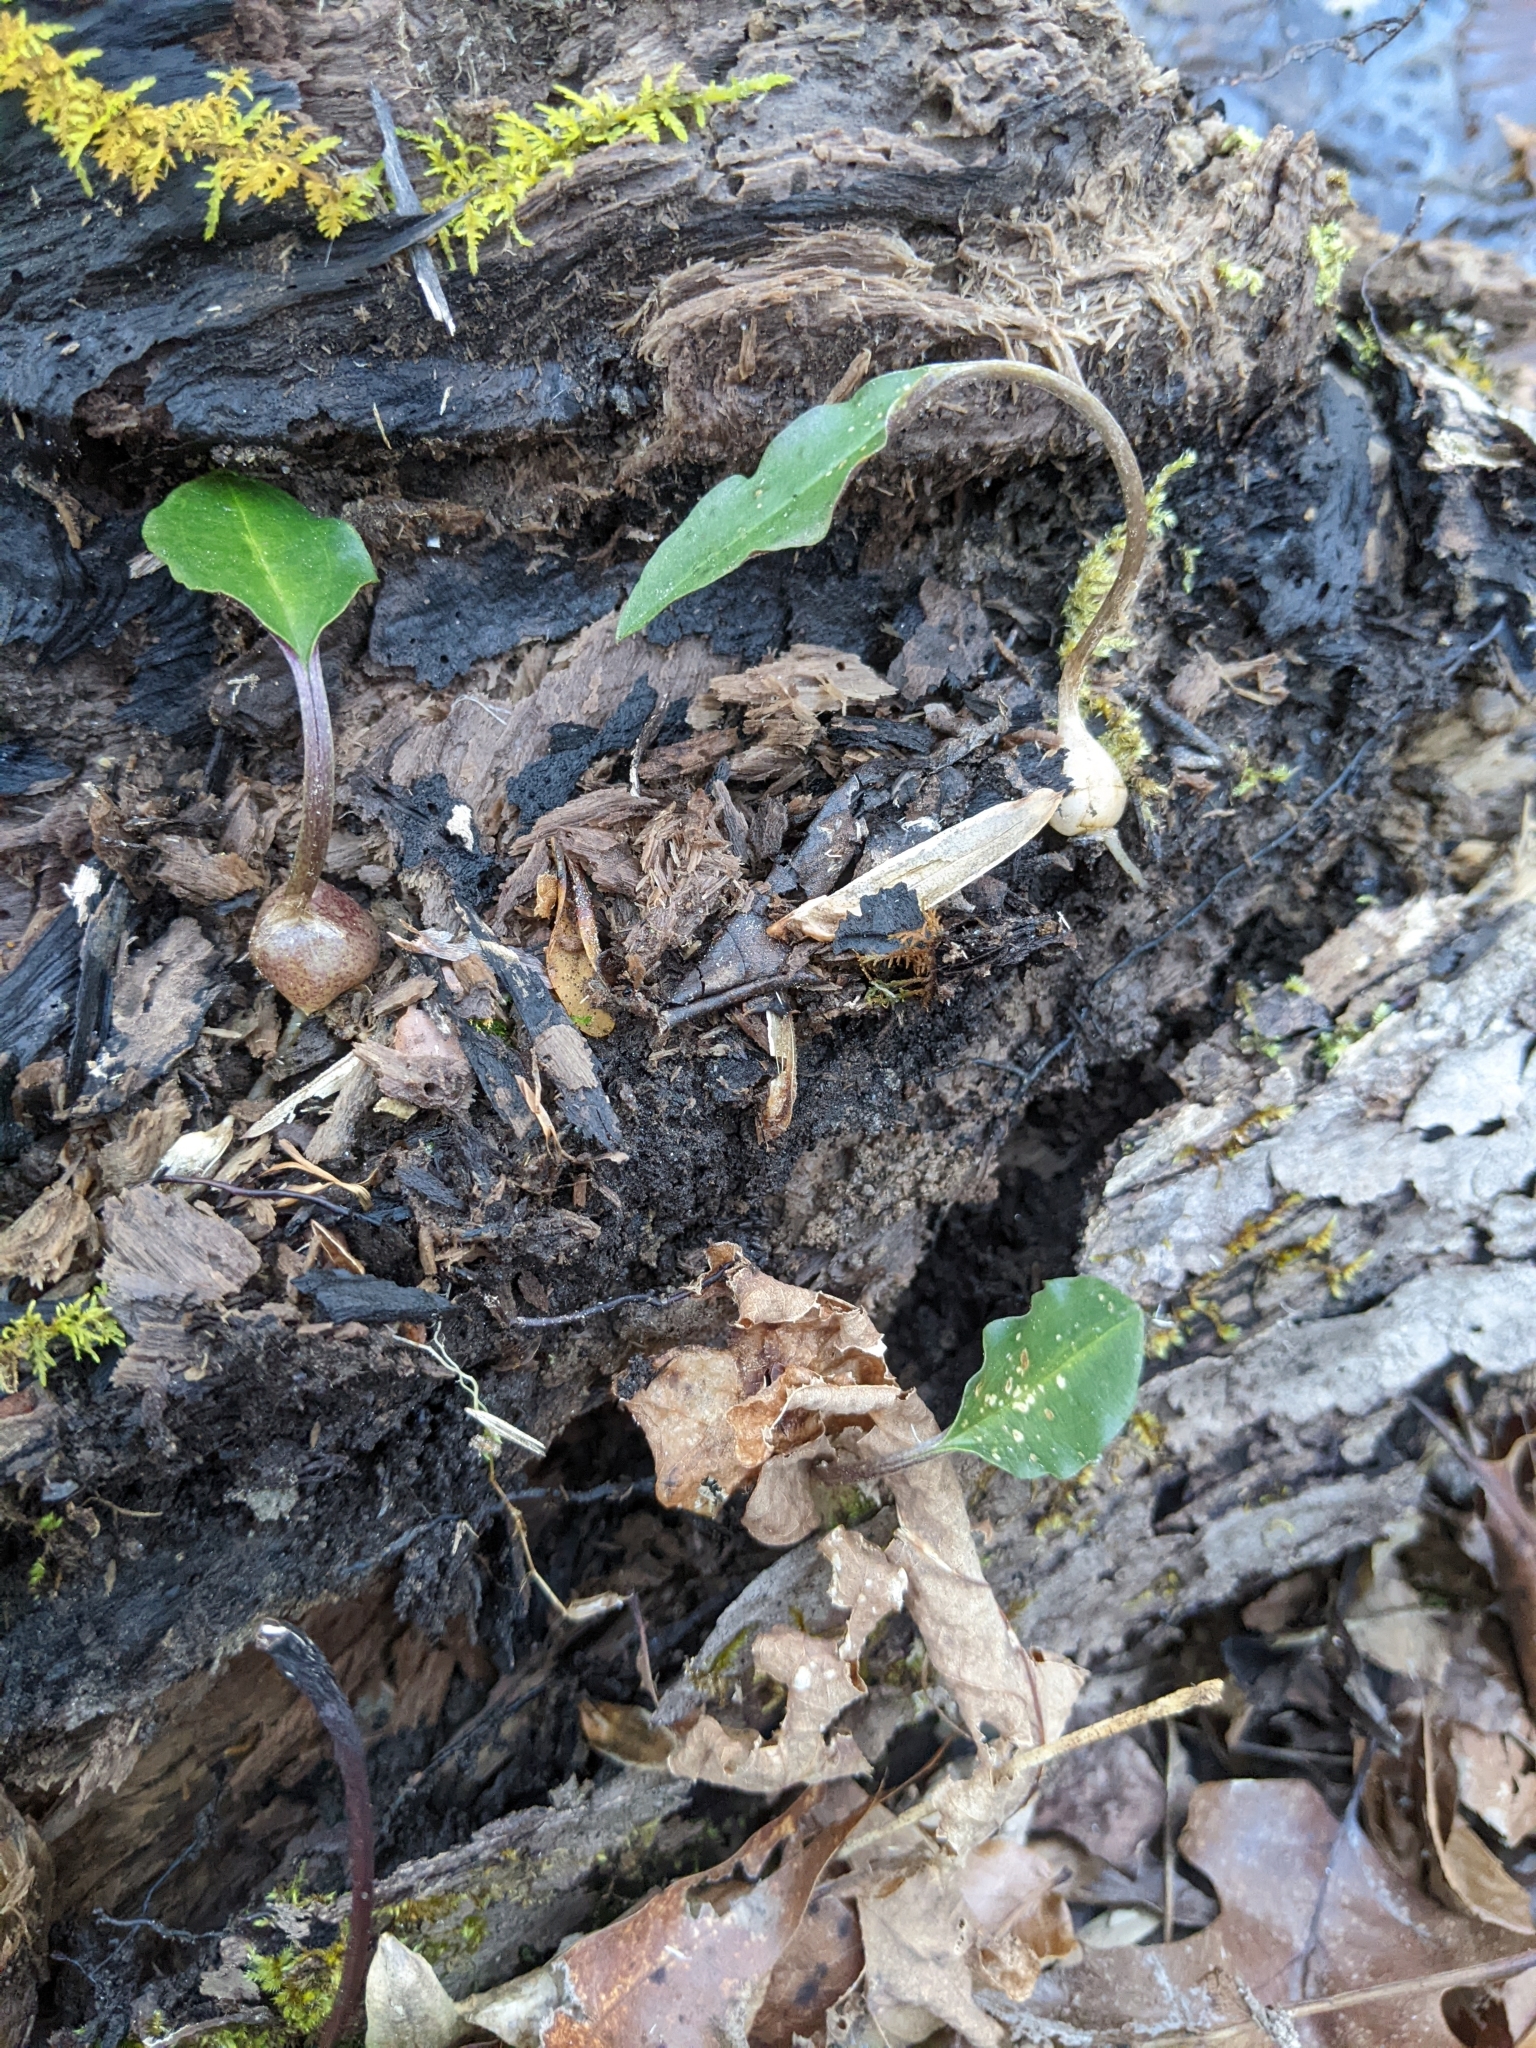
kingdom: Plantae
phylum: Tracheophyta
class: Liliopsida
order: Asparagales
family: Orchidaceae
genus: Tipularia
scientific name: Tipularia discolor
